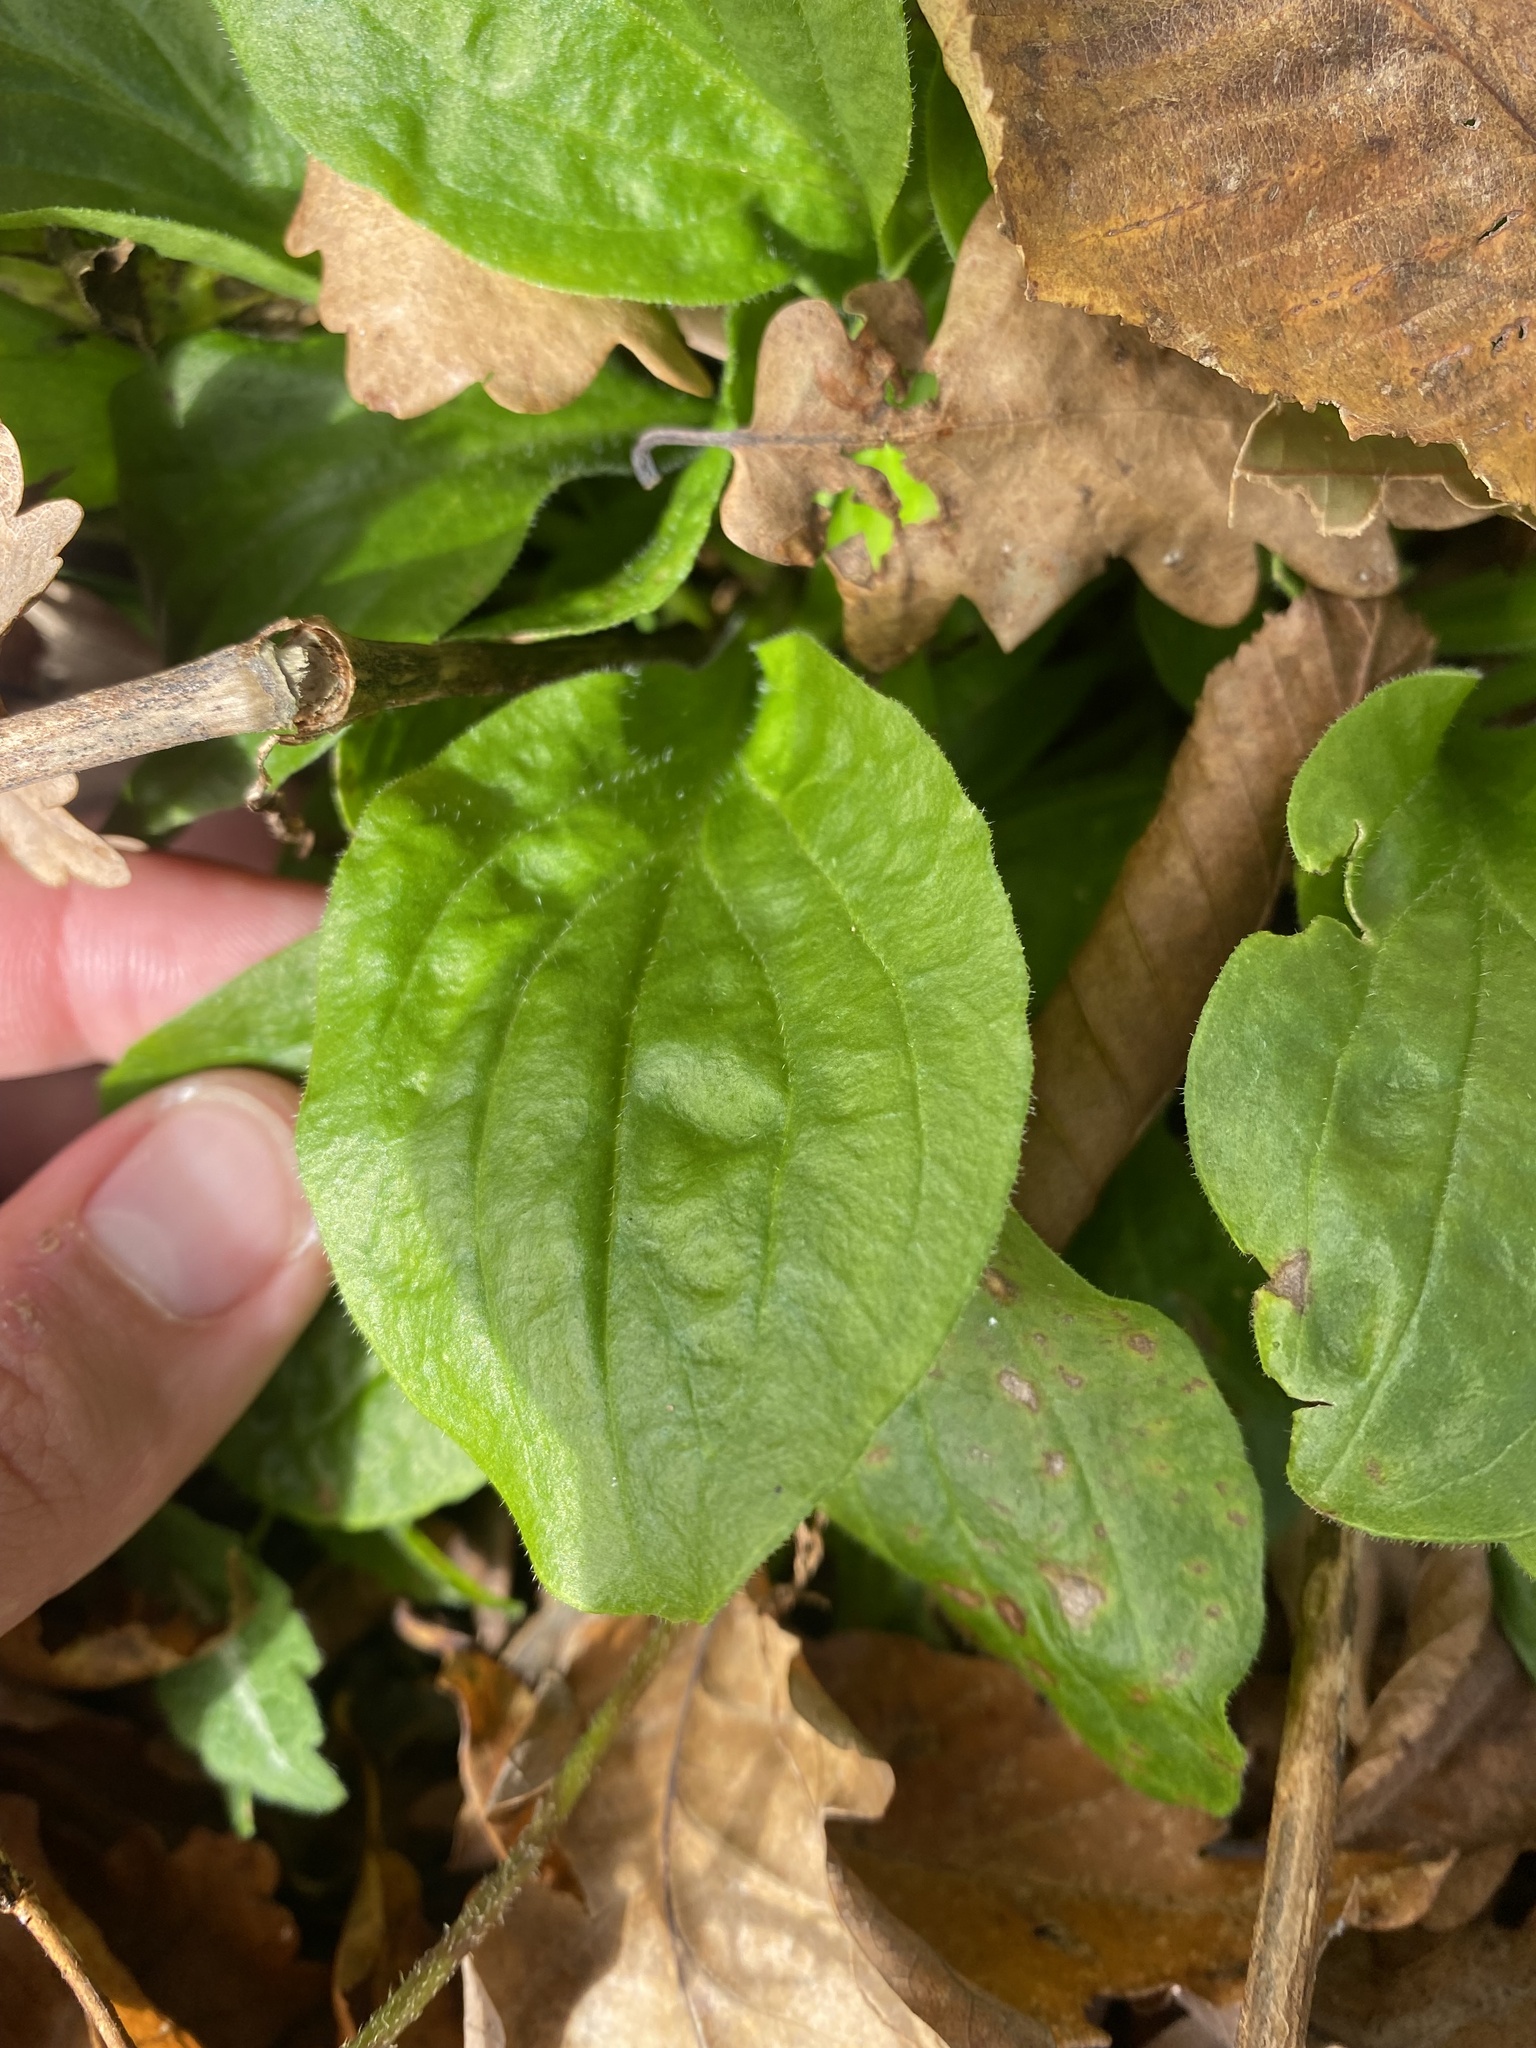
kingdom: Plantae
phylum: Tracheophyta
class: Magnoliopsida
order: Lamiales
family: Plantaginaceae
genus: Plantago
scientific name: Plantago major
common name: Common plantain
